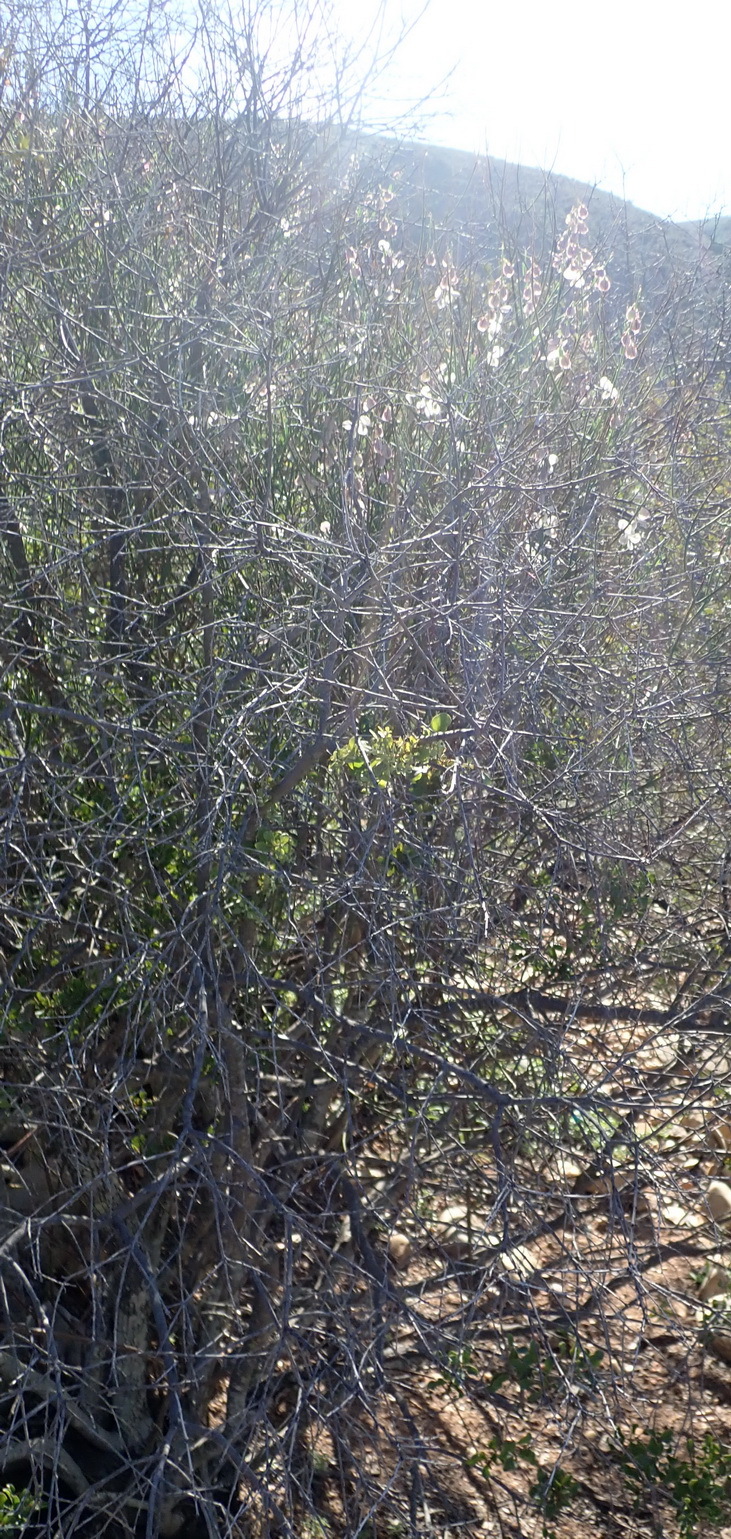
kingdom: Plantae
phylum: Tracheophyta
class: Magnoliopsida
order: Fabales
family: Polygalaceae
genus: Polygala
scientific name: Polygala virgata
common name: Milkwort
